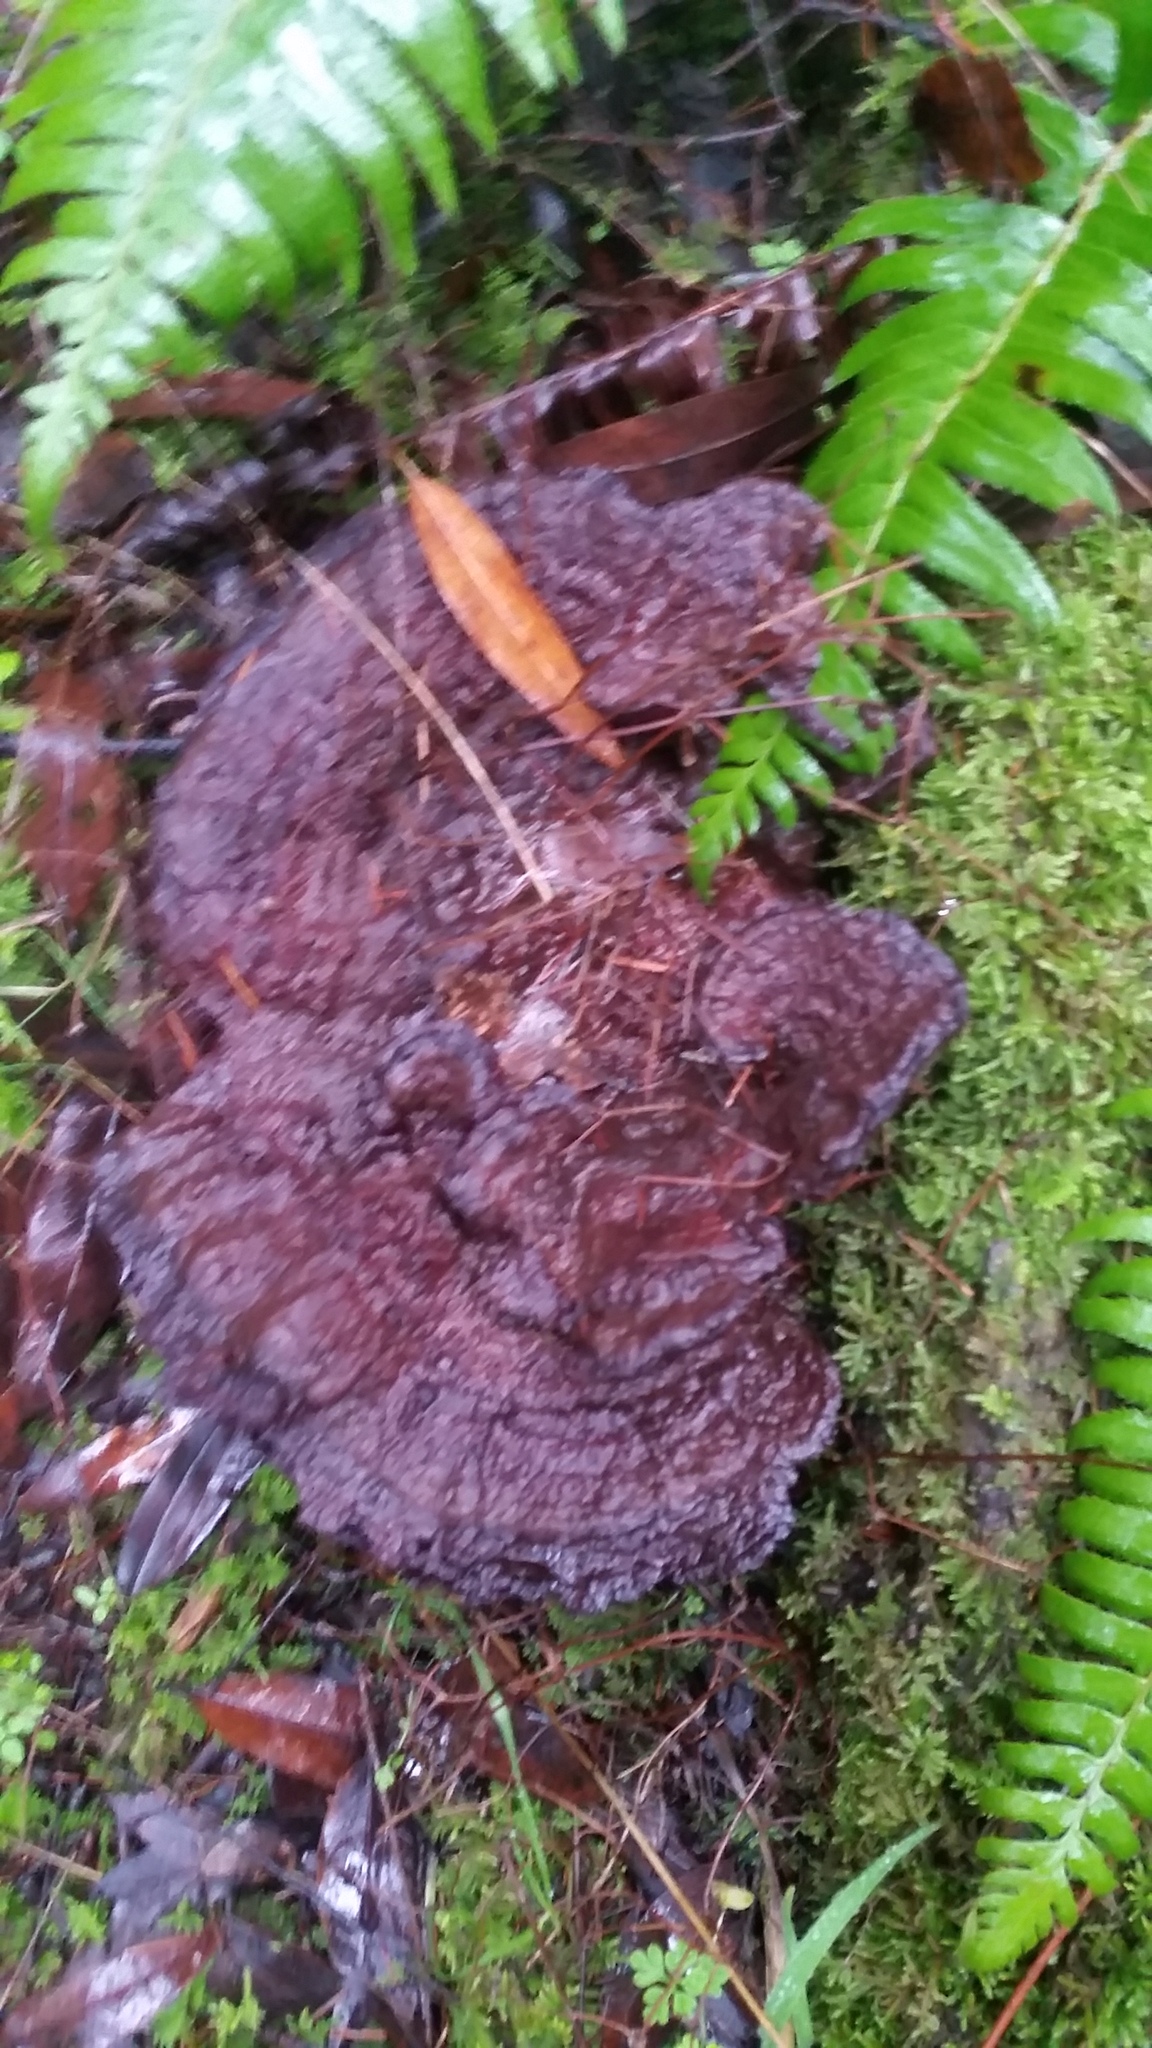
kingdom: Fungi
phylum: Basidiomycota
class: Agaricomycetes
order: Polyporales
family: Laetiporaceae
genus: Phaeolus
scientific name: Phaeolus schweinitzii
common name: Dyer's mazegill
